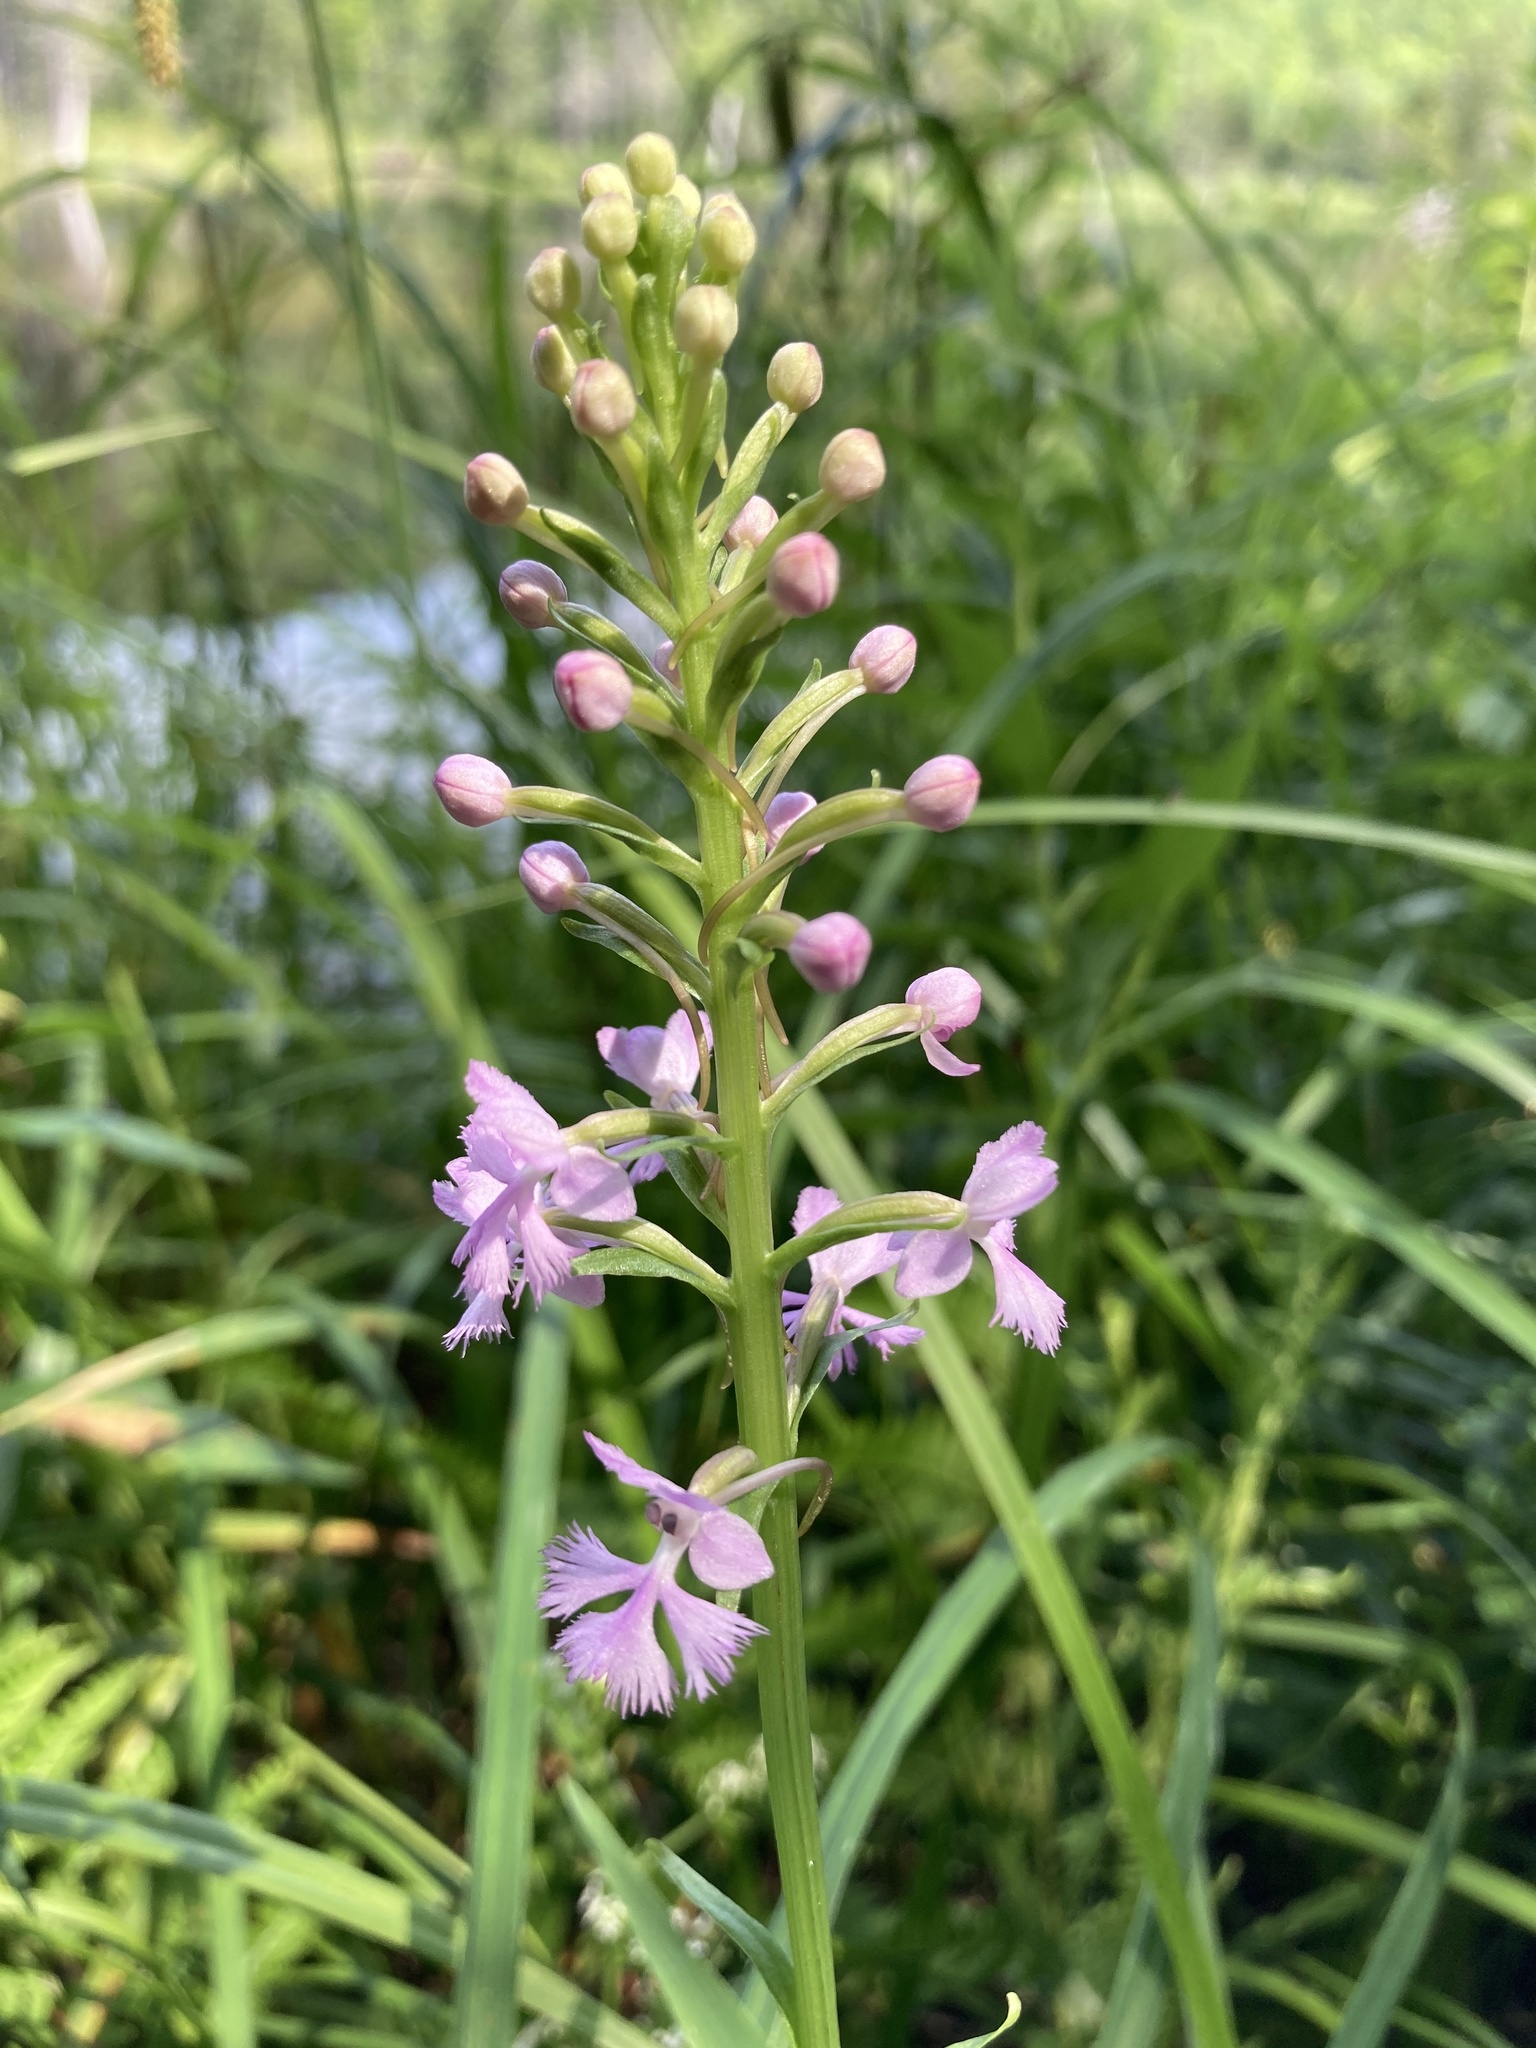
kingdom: Plantae
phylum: Tracheophyta
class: Liliopsida
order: Asparagales
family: Orchidaceae
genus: Platanthera
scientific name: Platanthera psycodes
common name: Lesser purple fringed orchid
